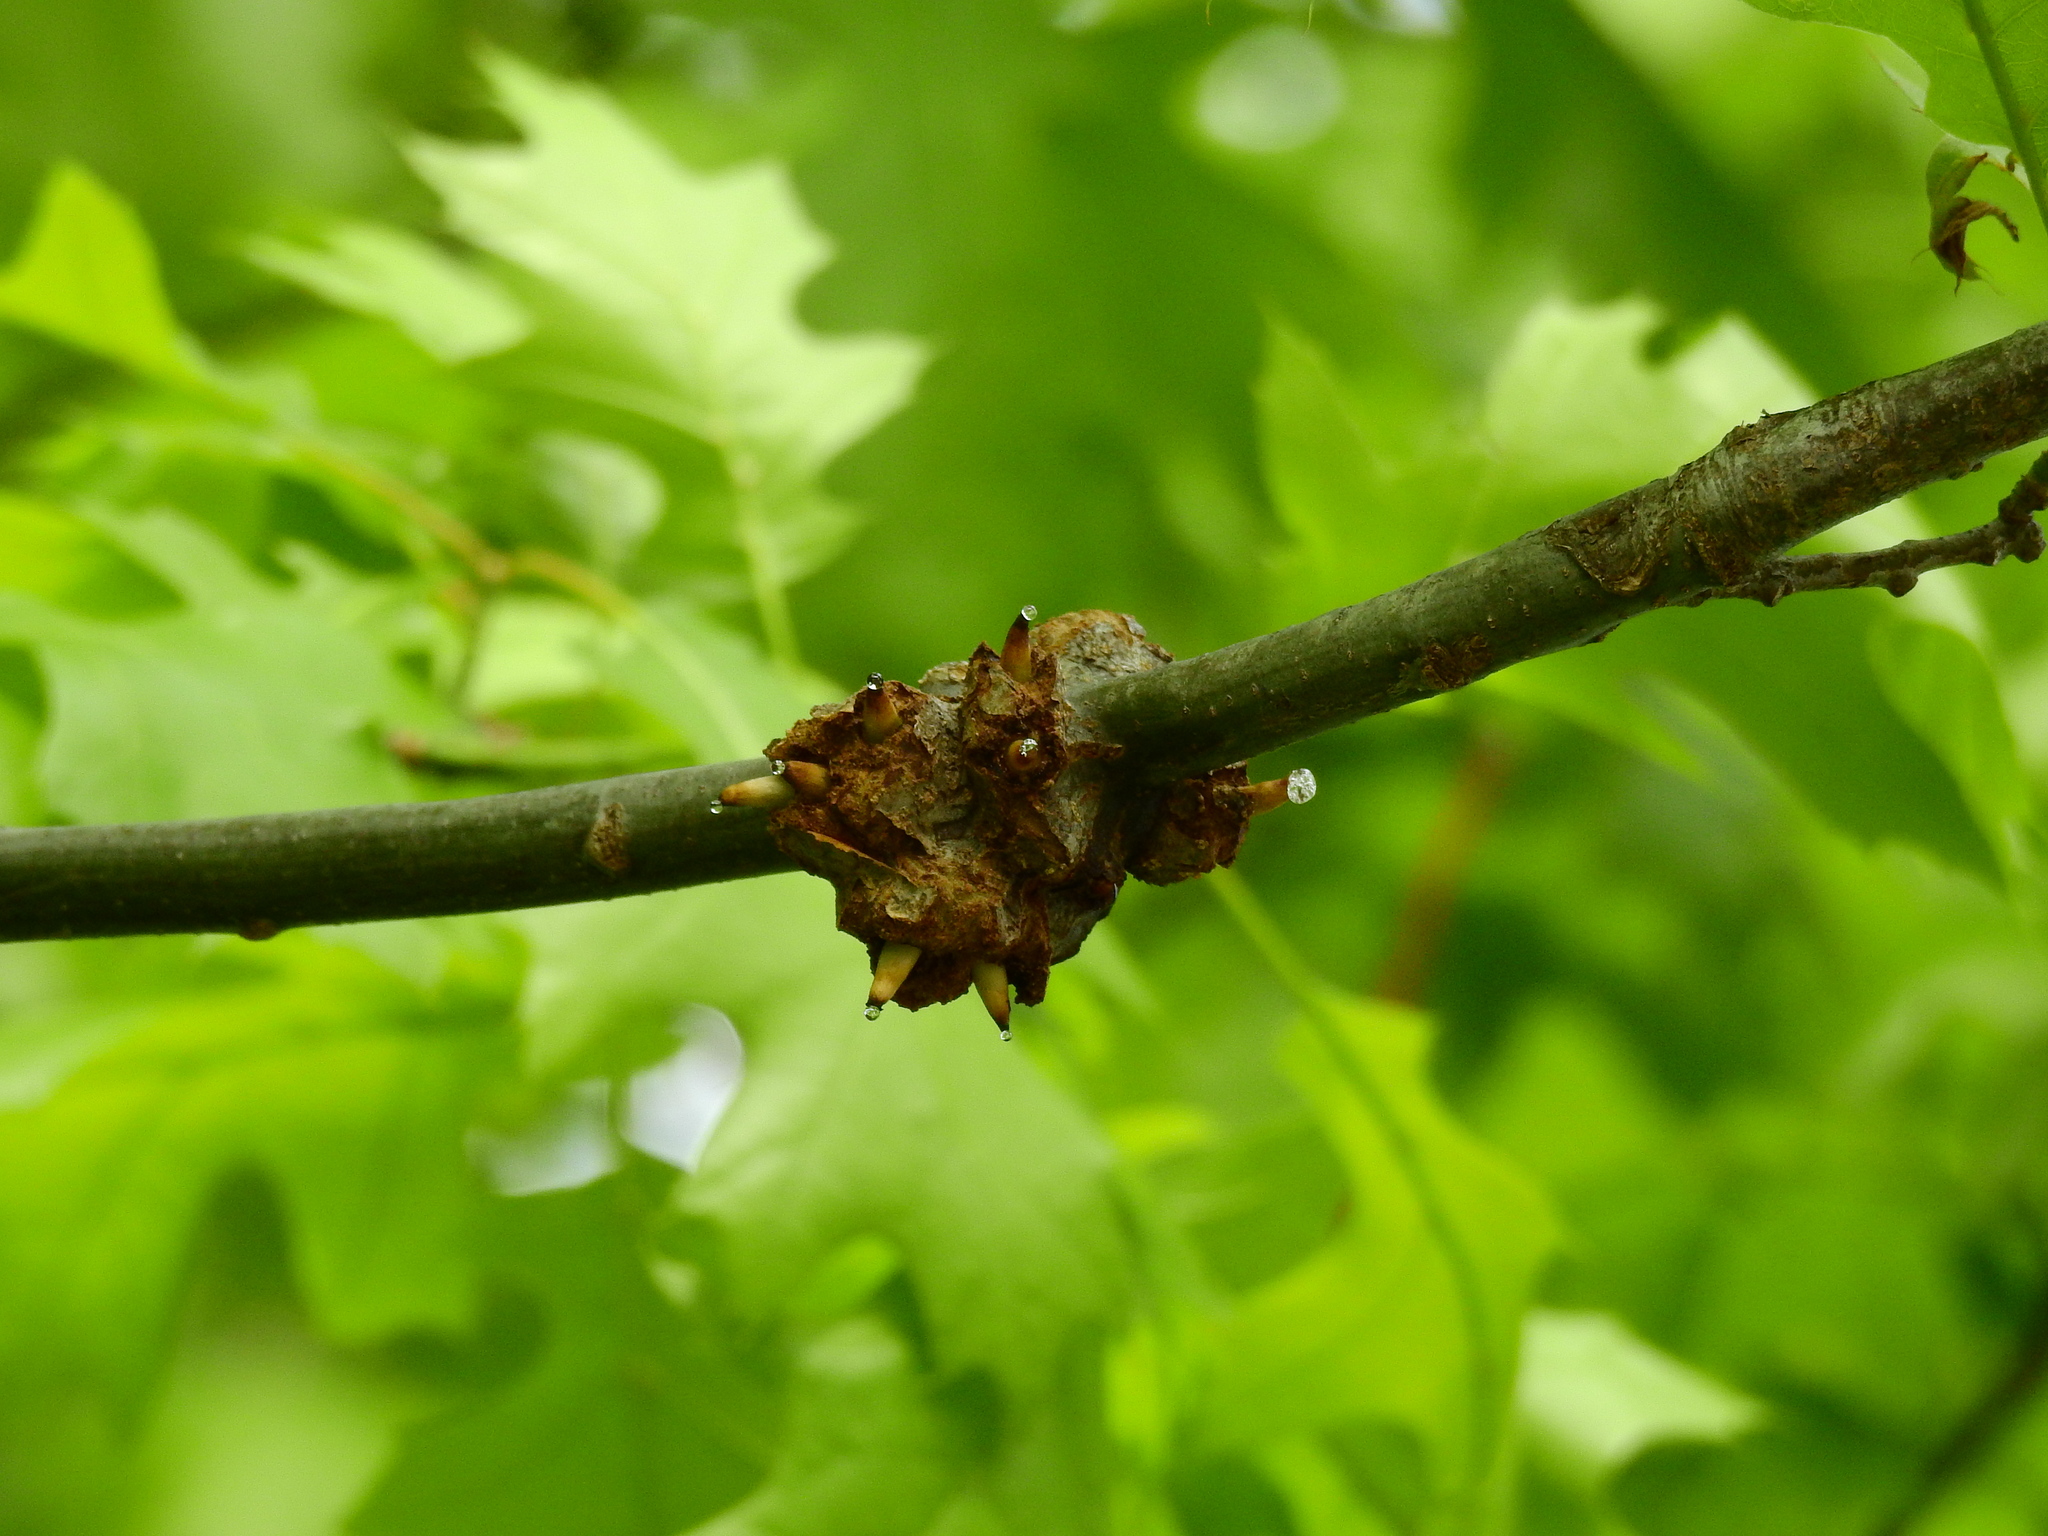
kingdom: Animalia
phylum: Arthropoda
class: Insecta
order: Hymenoptera
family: Cynipidae
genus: Callirhytis
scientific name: Callirhytis
